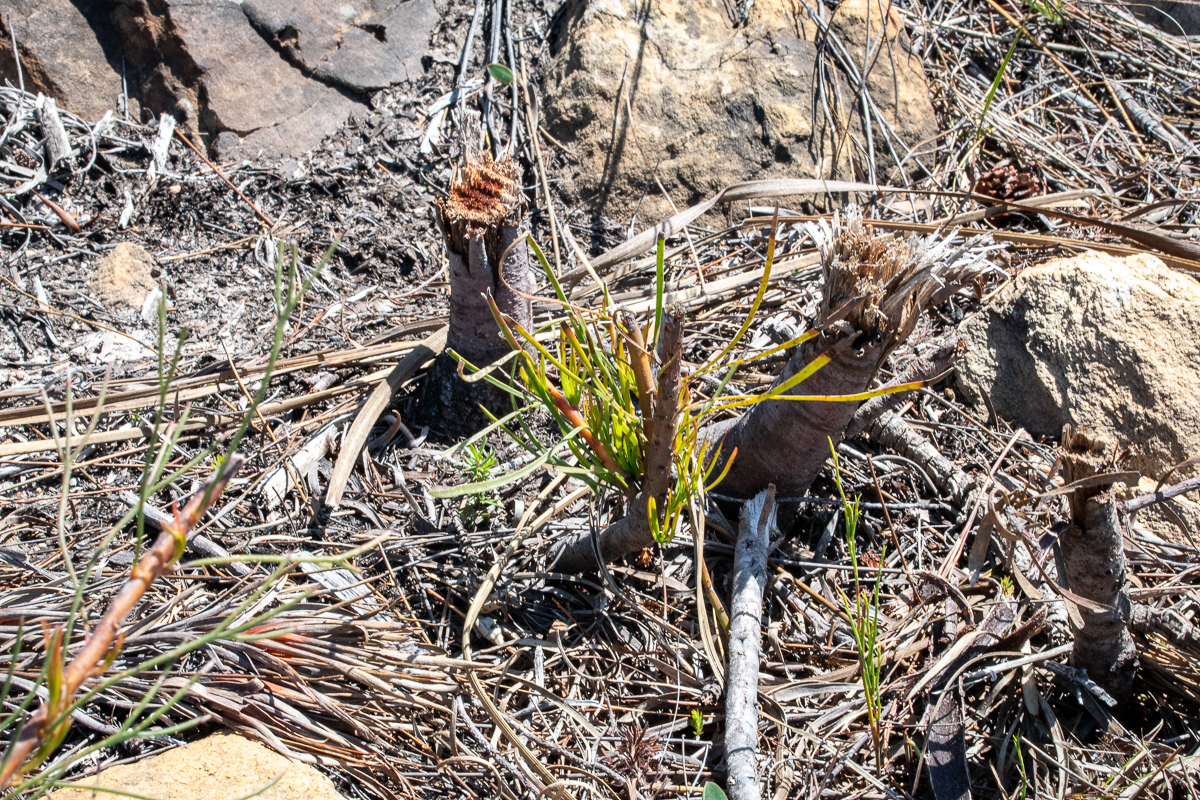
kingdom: Plantae
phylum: Tracheophyta
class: Magnoliopsida
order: Proteales
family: Proteaceae
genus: Aulax
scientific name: Aulax
